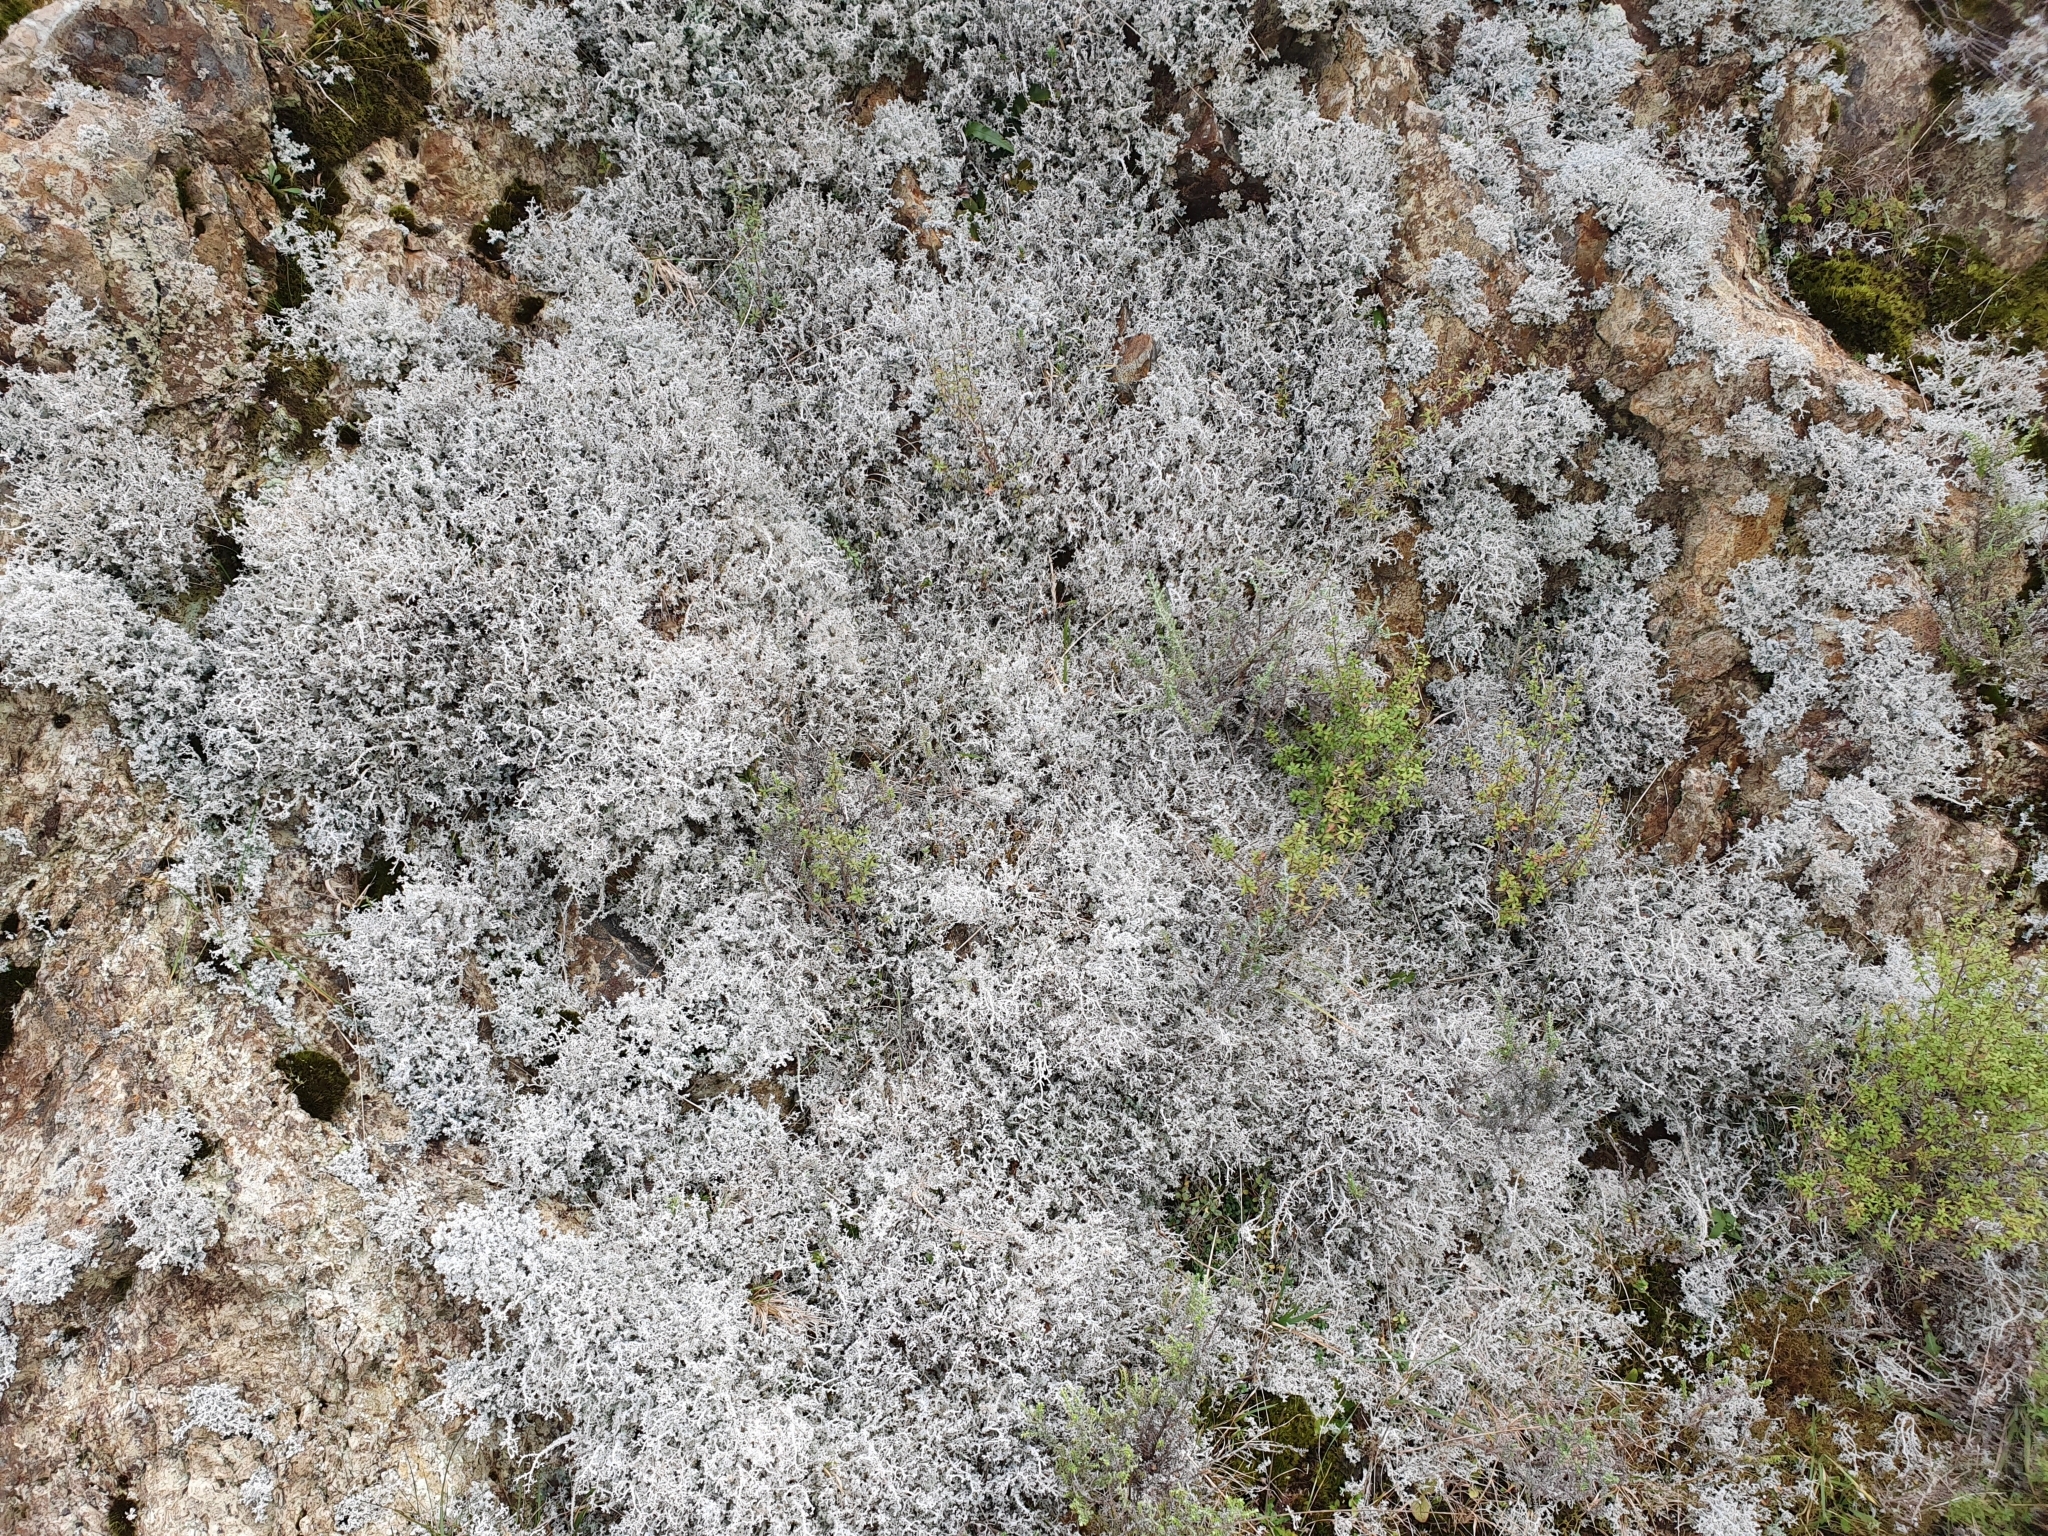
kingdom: Fungi
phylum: Ascomycota
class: Lecanoromycetes
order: Lecanorales
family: Stereocaulaceae
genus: Stereocaulon
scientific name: Stereocaulon ramulosum
